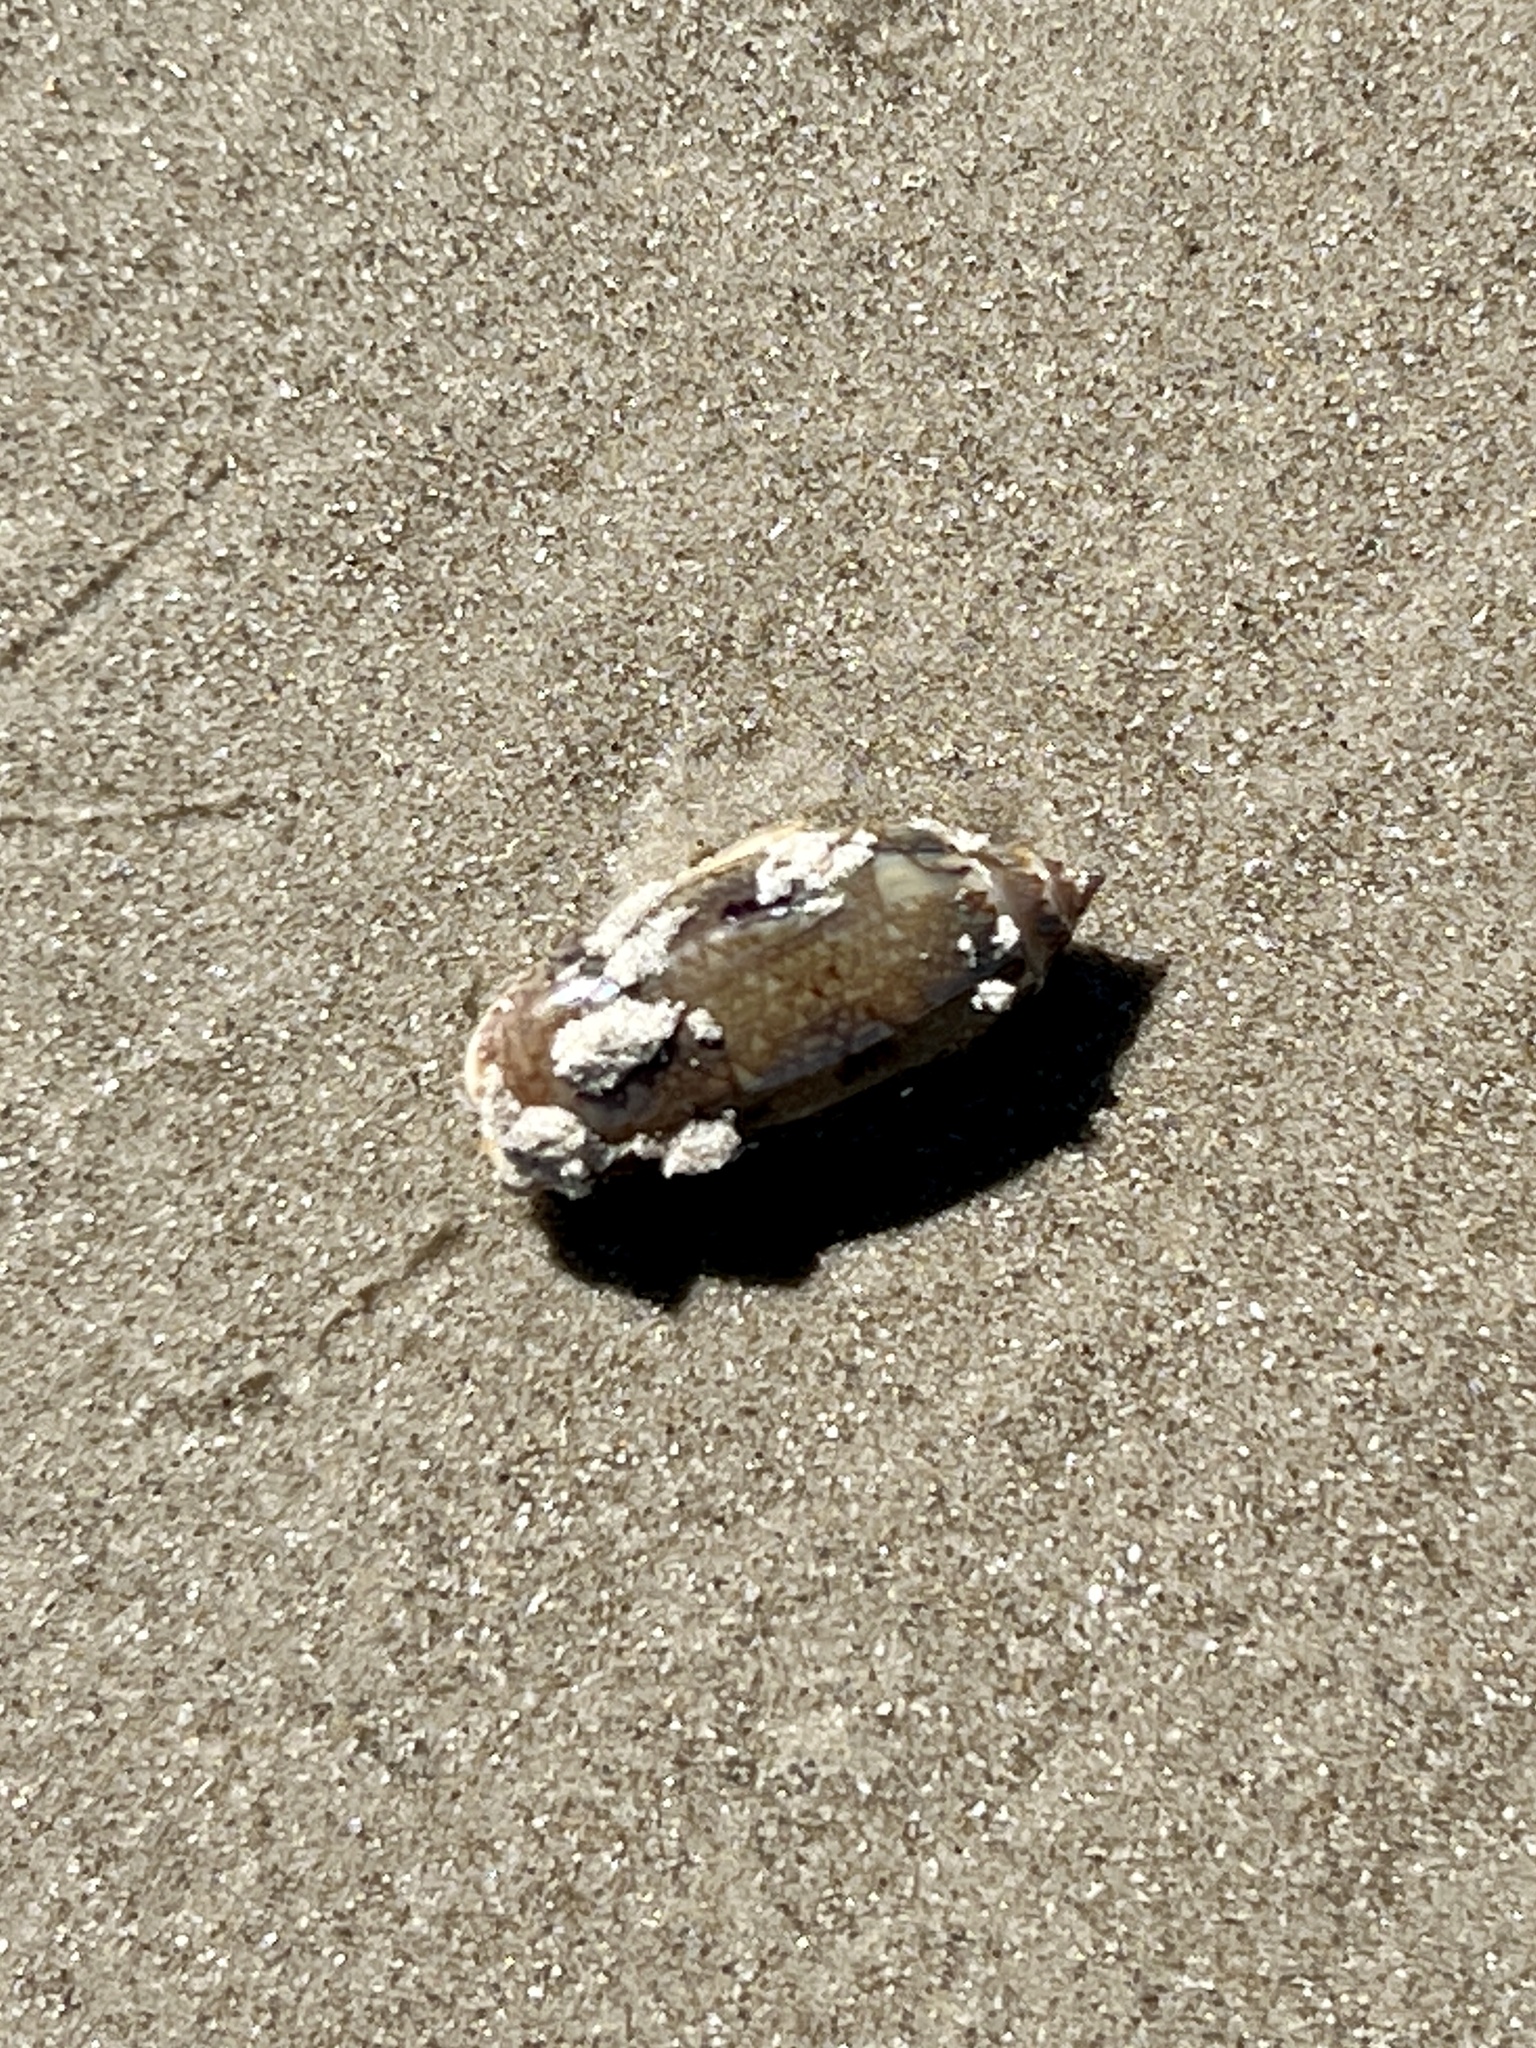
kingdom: Animalia
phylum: Mollusca
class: Gastropoda
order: Neogastropoda
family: Olividae
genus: Oliva
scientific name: Oliva sayana
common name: Lettered olive
